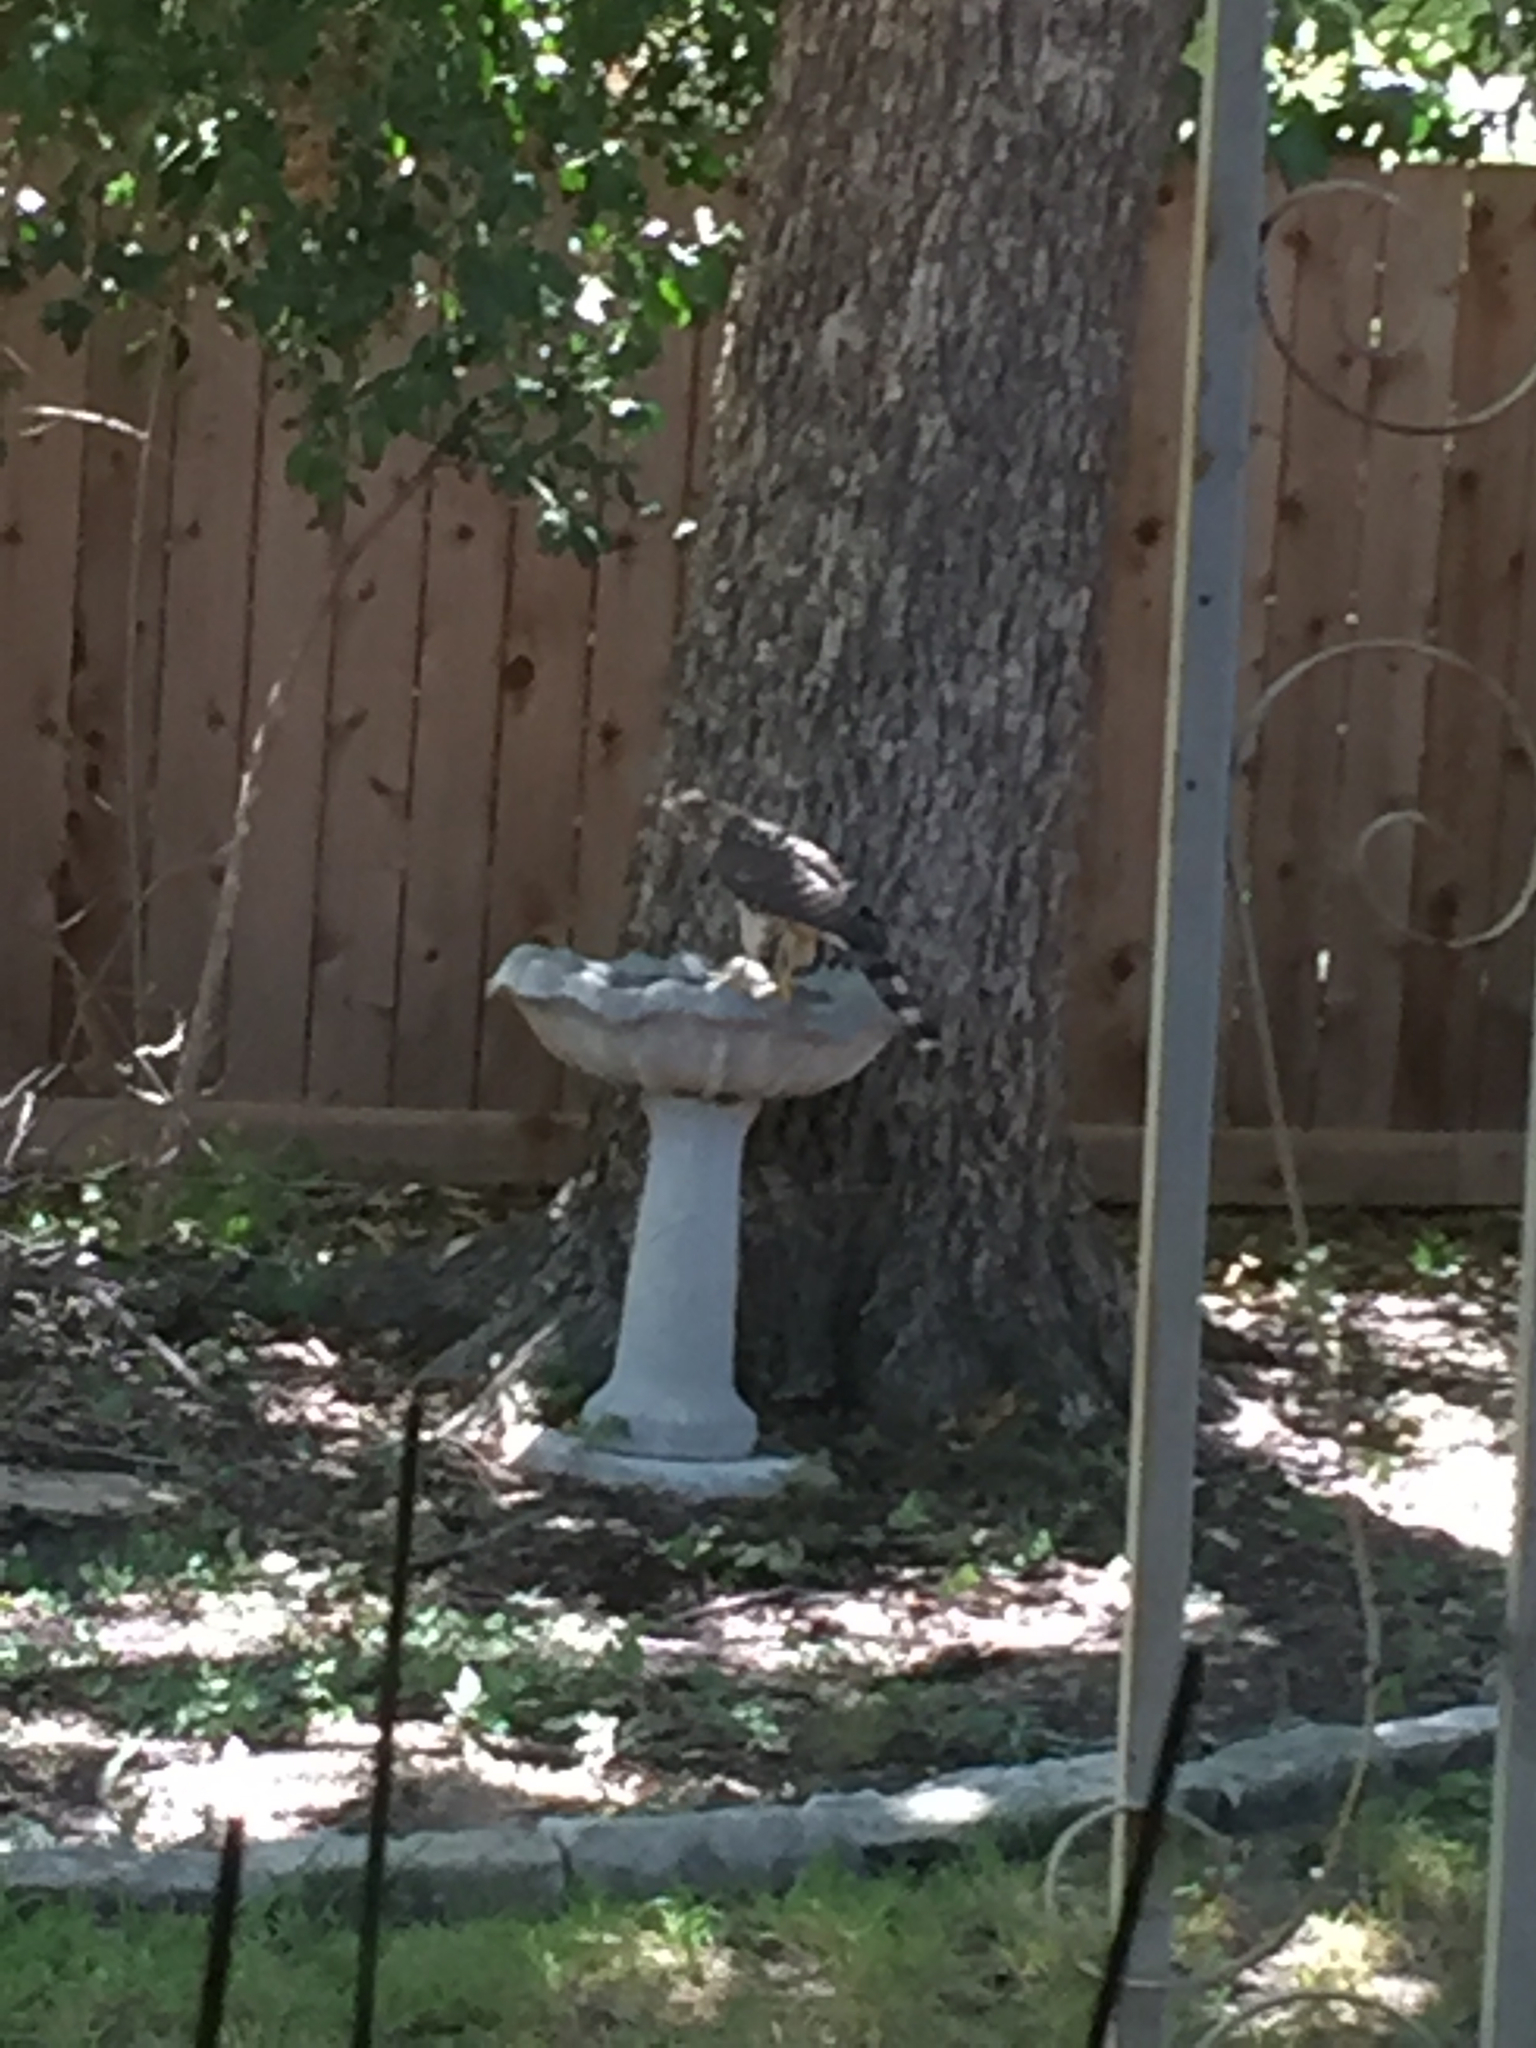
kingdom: Animalia
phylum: Chordata
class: Aves
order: Accipitriformes
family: Accipitridae
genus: Accipiter
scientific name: Accipiter cooperii
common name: Cooper's hawk
